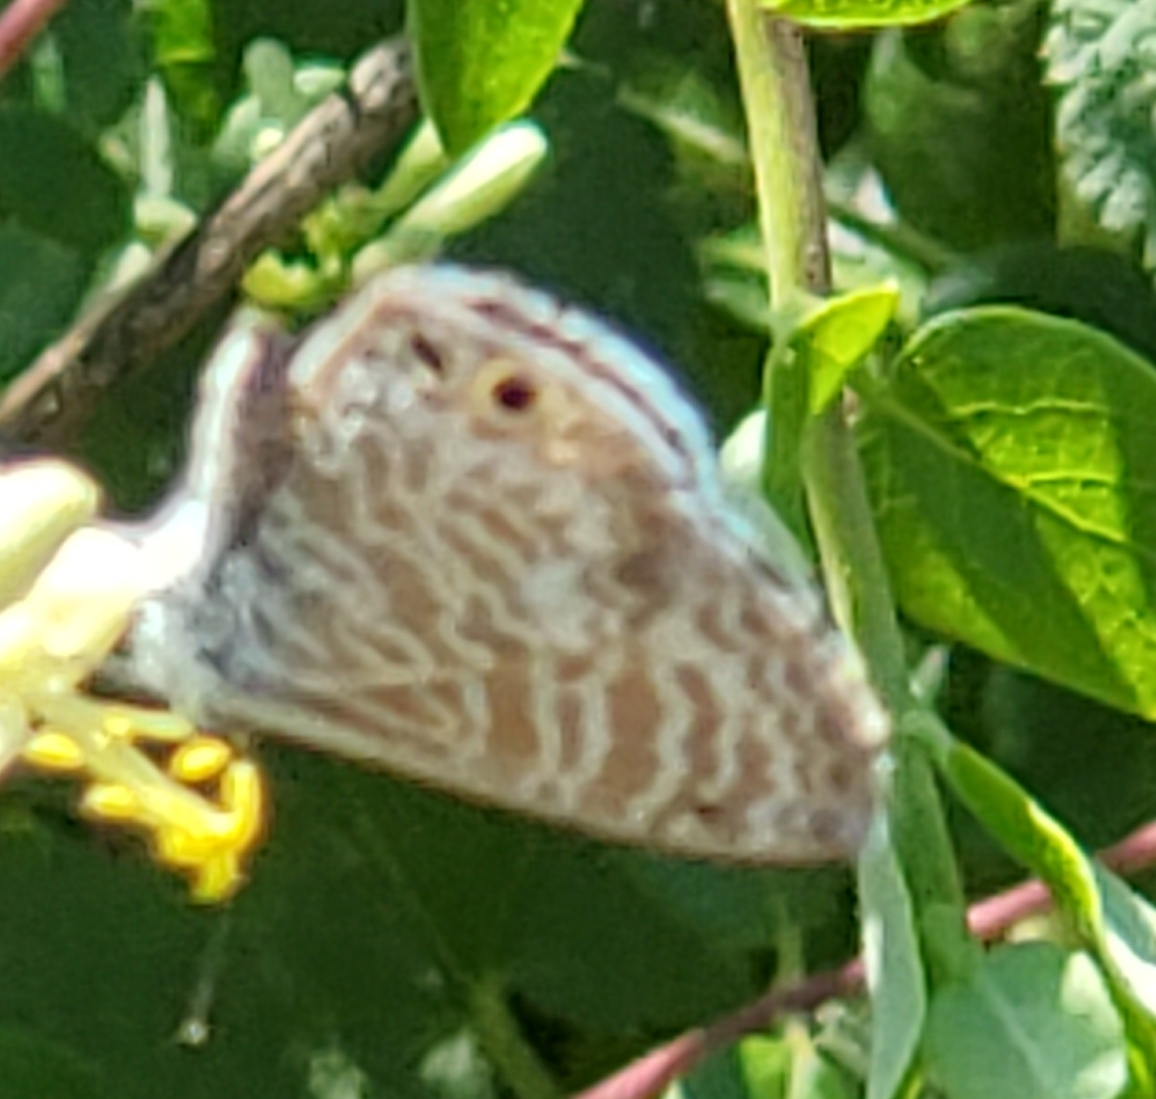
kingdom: Animalia
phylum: Arthropoda
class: Insecta
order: Lepidoptera
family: Lycaenidae
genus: Leptotes
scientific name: Leptotes marina
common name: Marine blue
